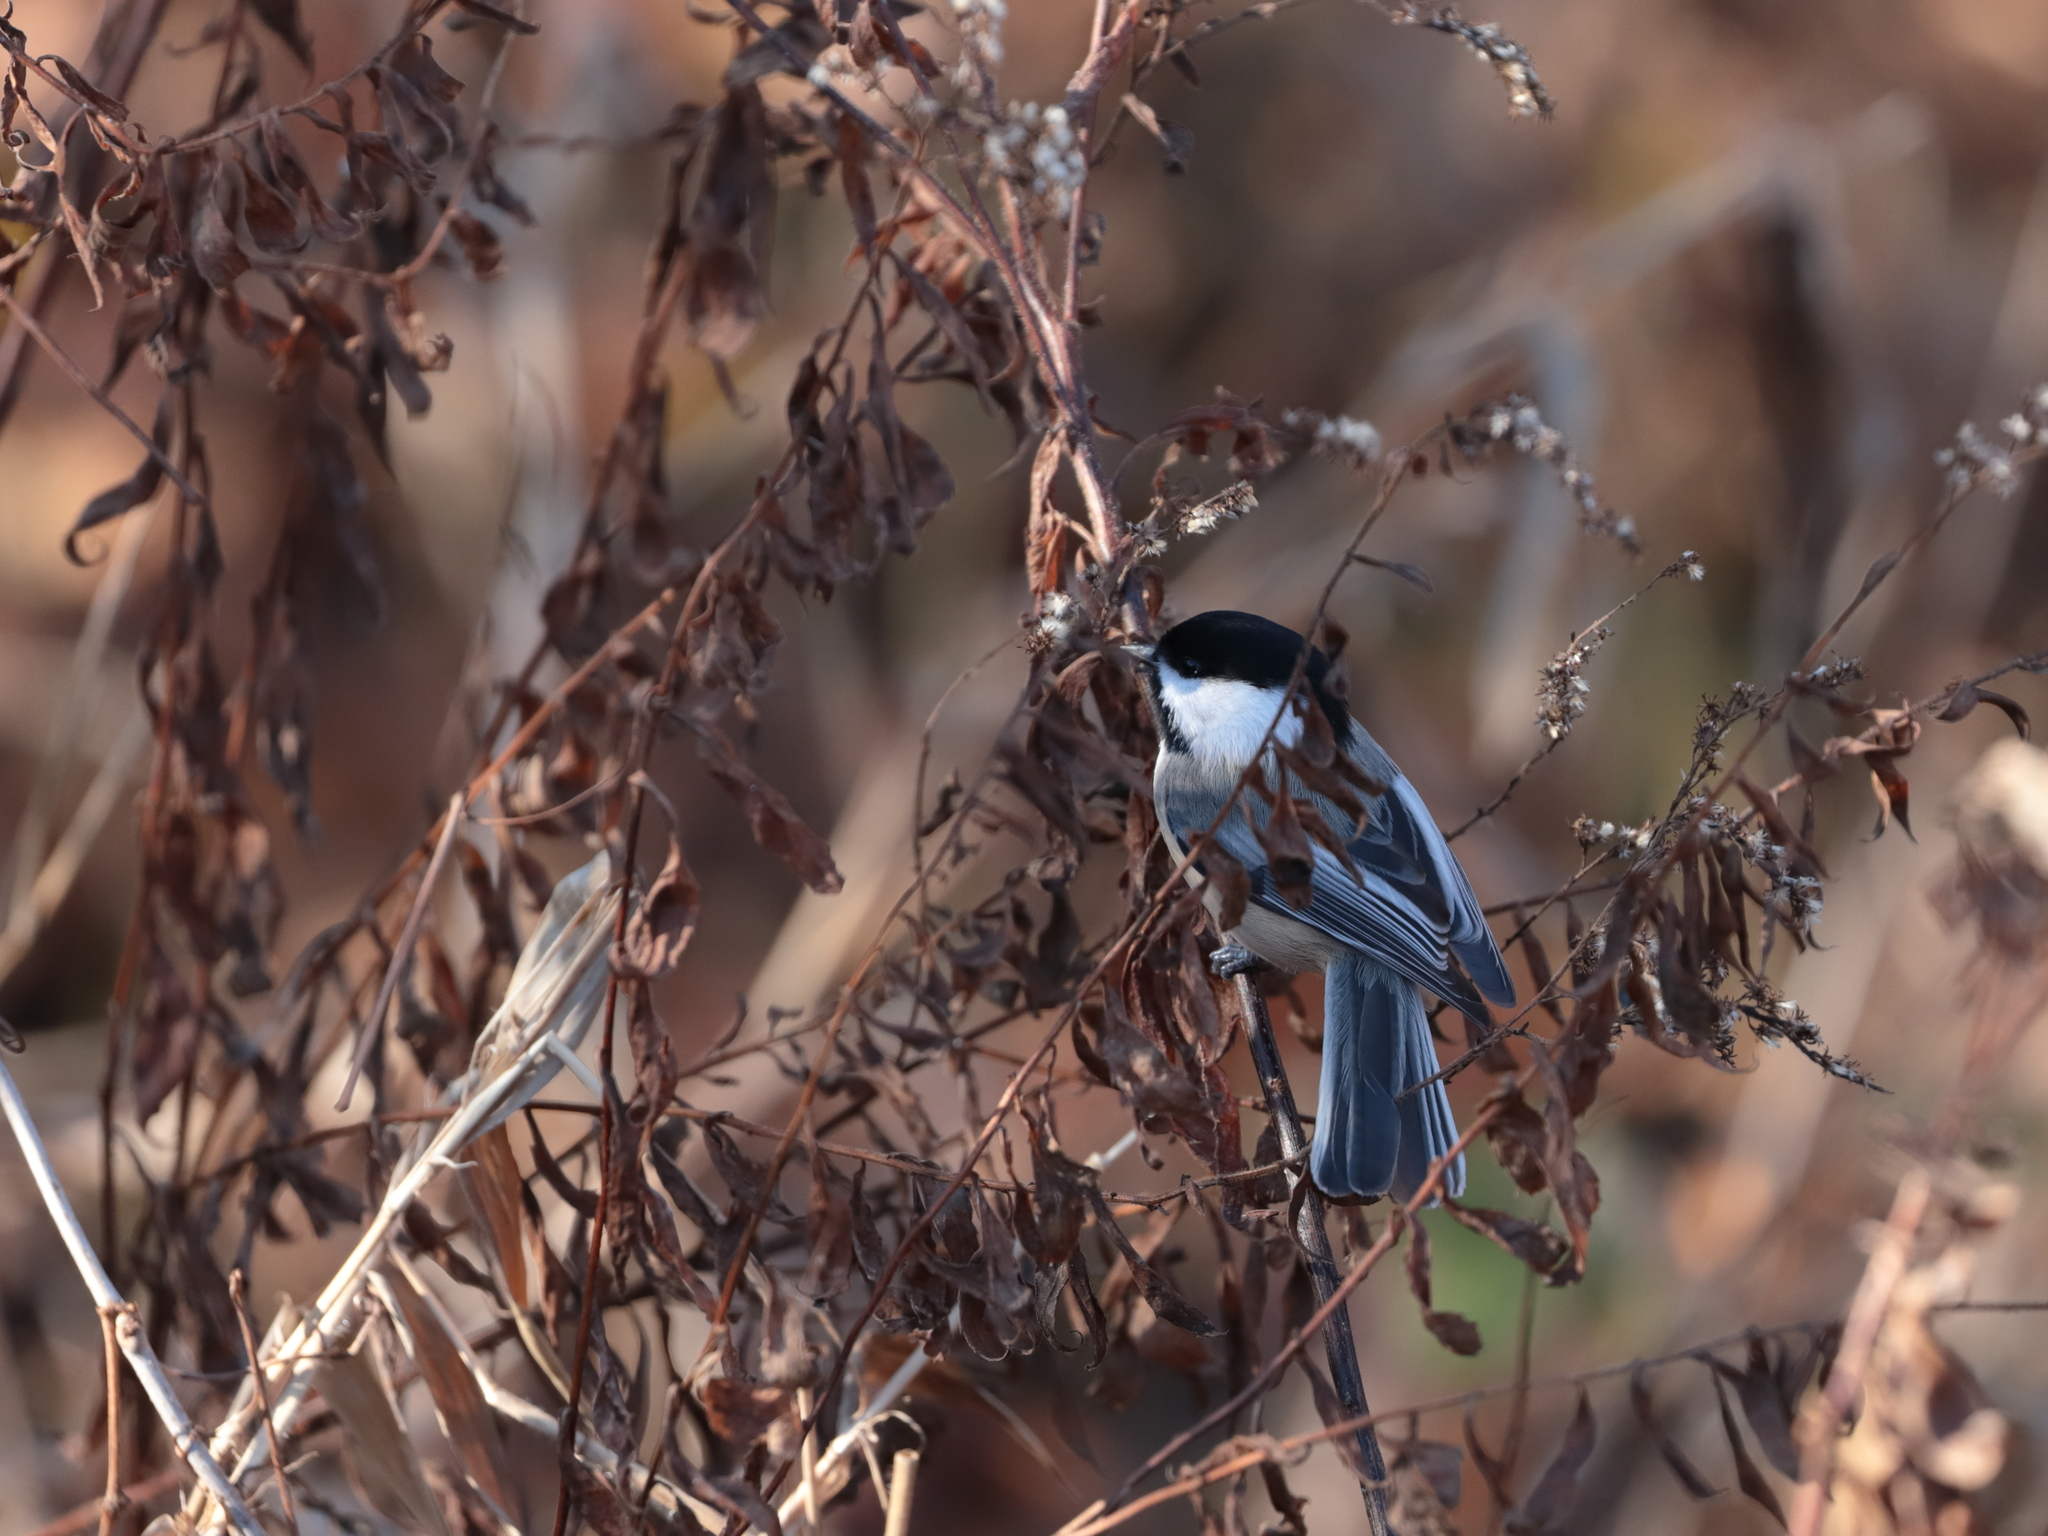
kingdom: Animalia
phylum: Chordata
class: Aves
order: Passeriformes
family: Paridae
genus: Poecile
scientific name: Poecile atricapillus
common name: Black-capped chickadee
